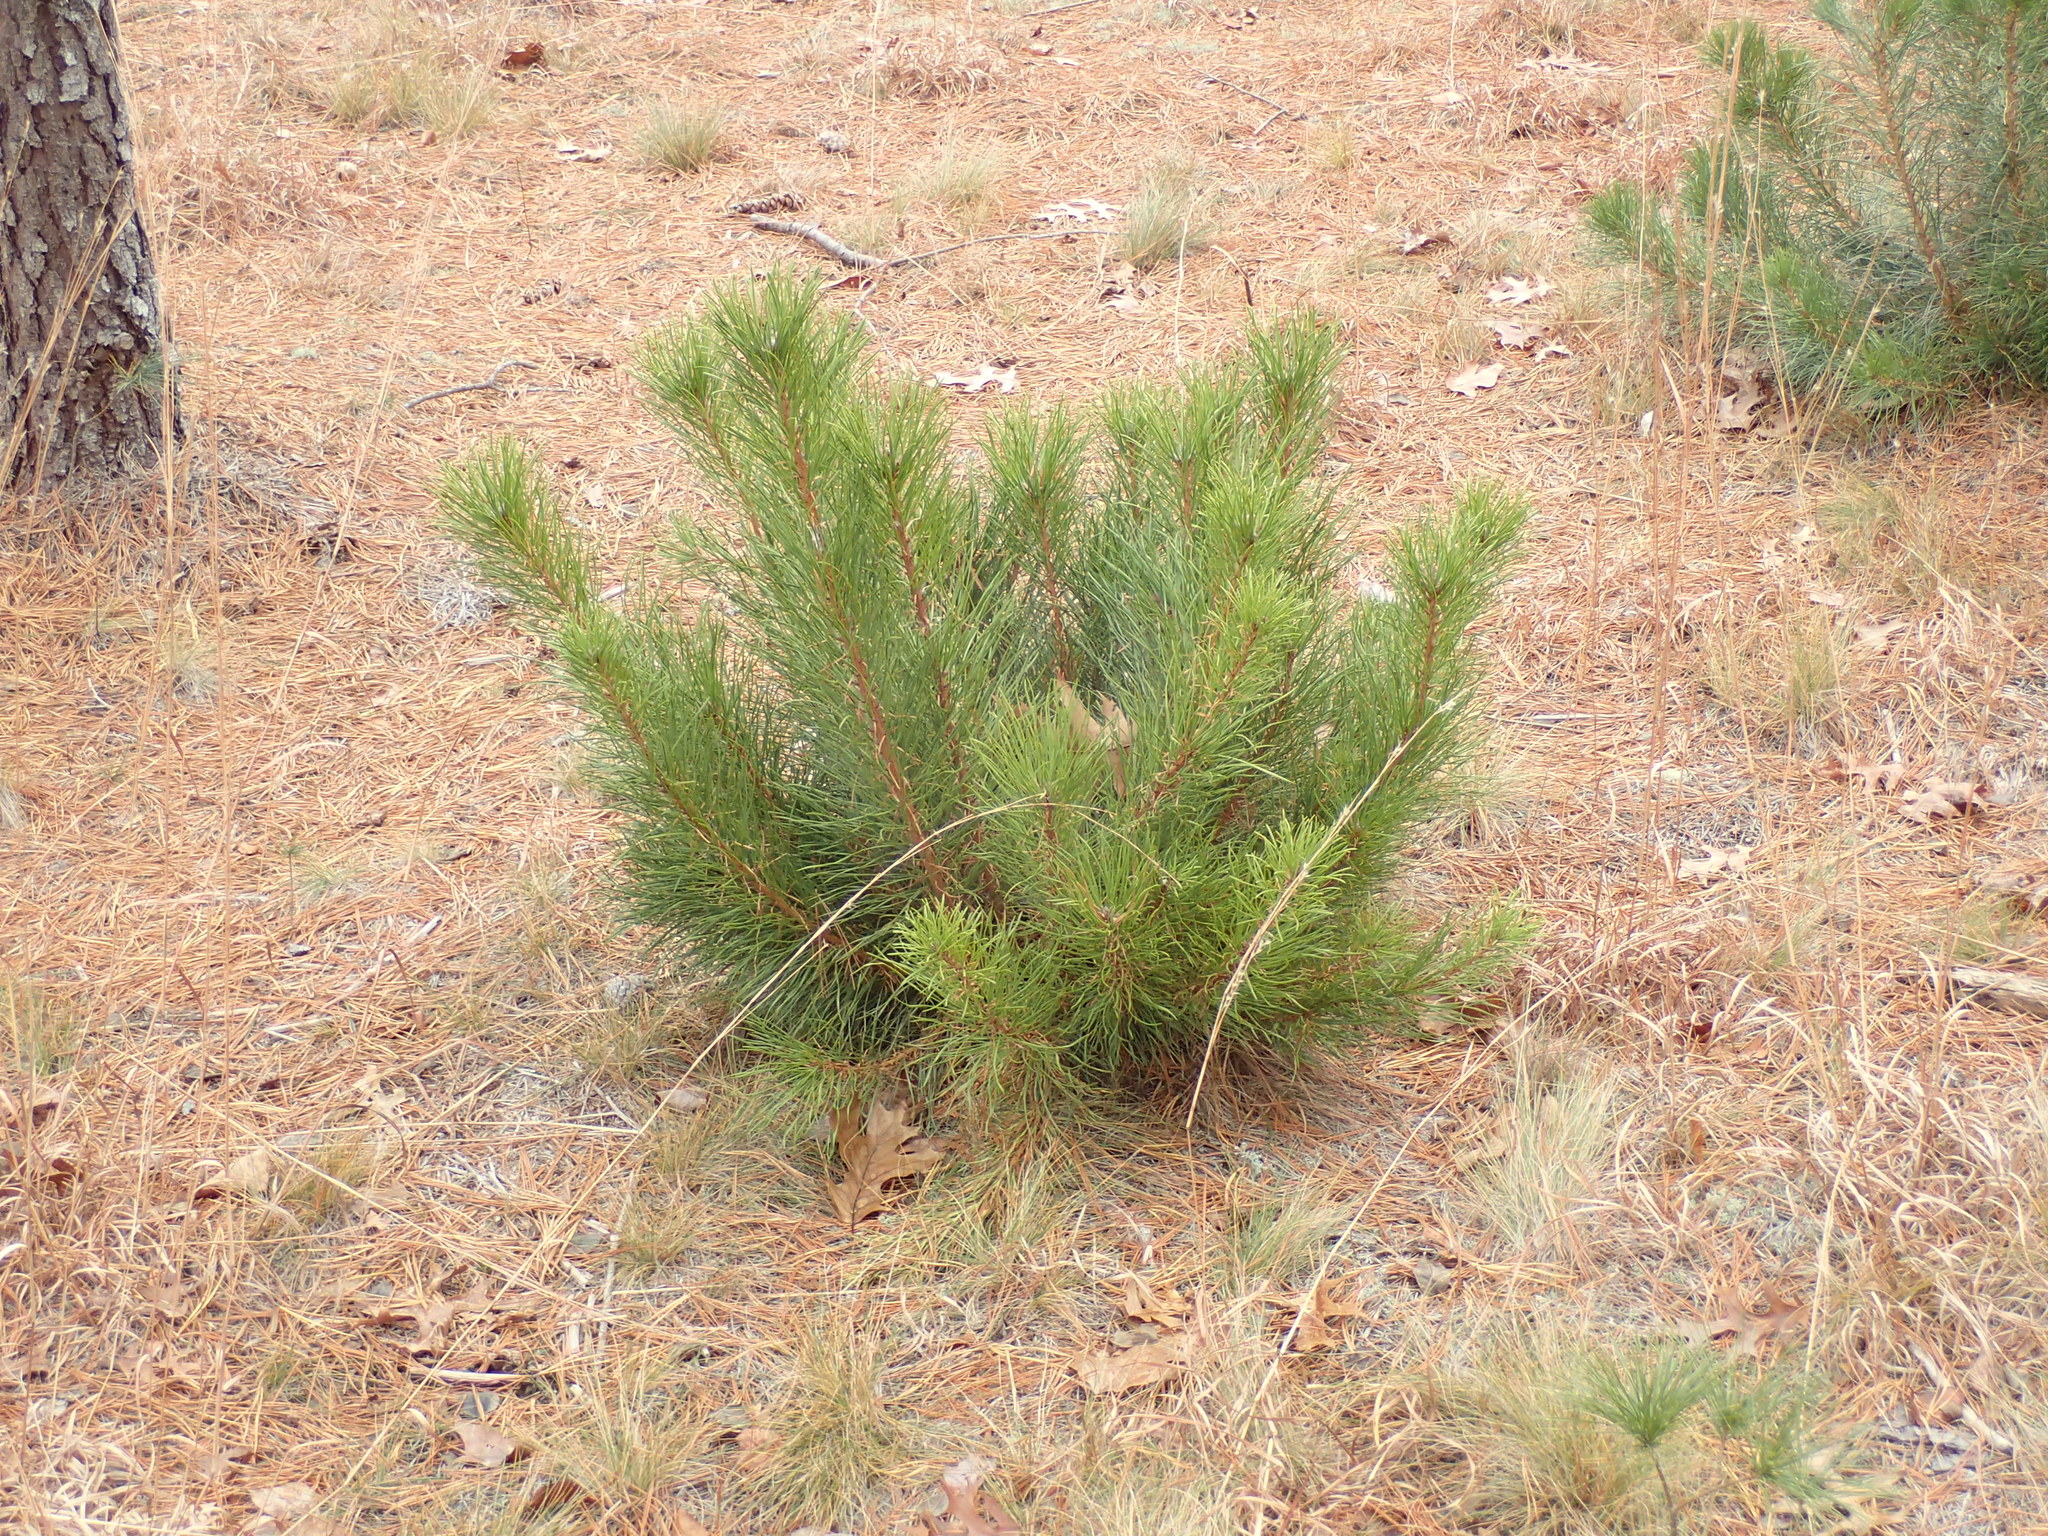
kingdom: Plantae
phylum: Tracheophyta
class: Pinopsida
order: Pinales
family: Pinaceae
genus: Pinus
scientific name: Pinus rigida
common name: Pitch pine
